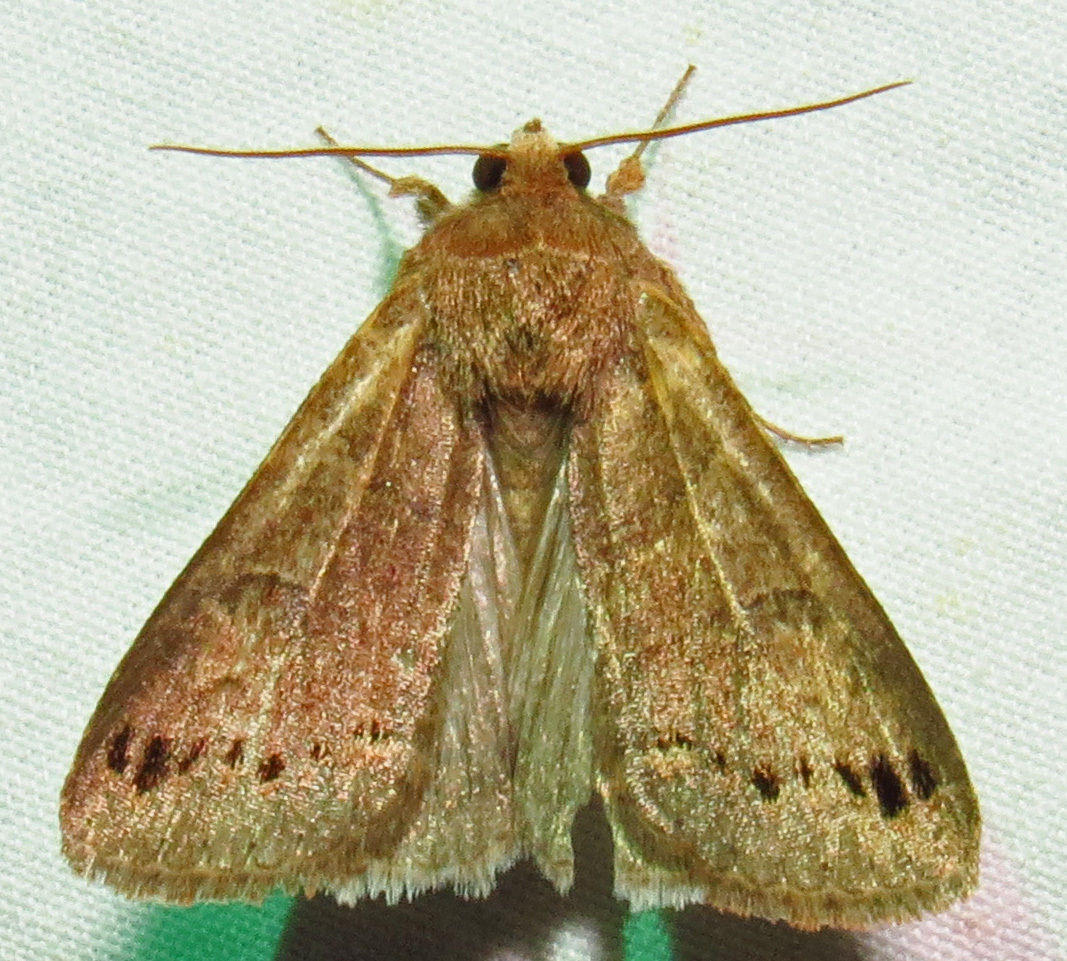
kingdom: Animalia
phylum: Arthropoda
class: Insecta
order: Lepidoptera
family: Erebidae
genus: Cissusa
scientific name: Cissusa spadix
